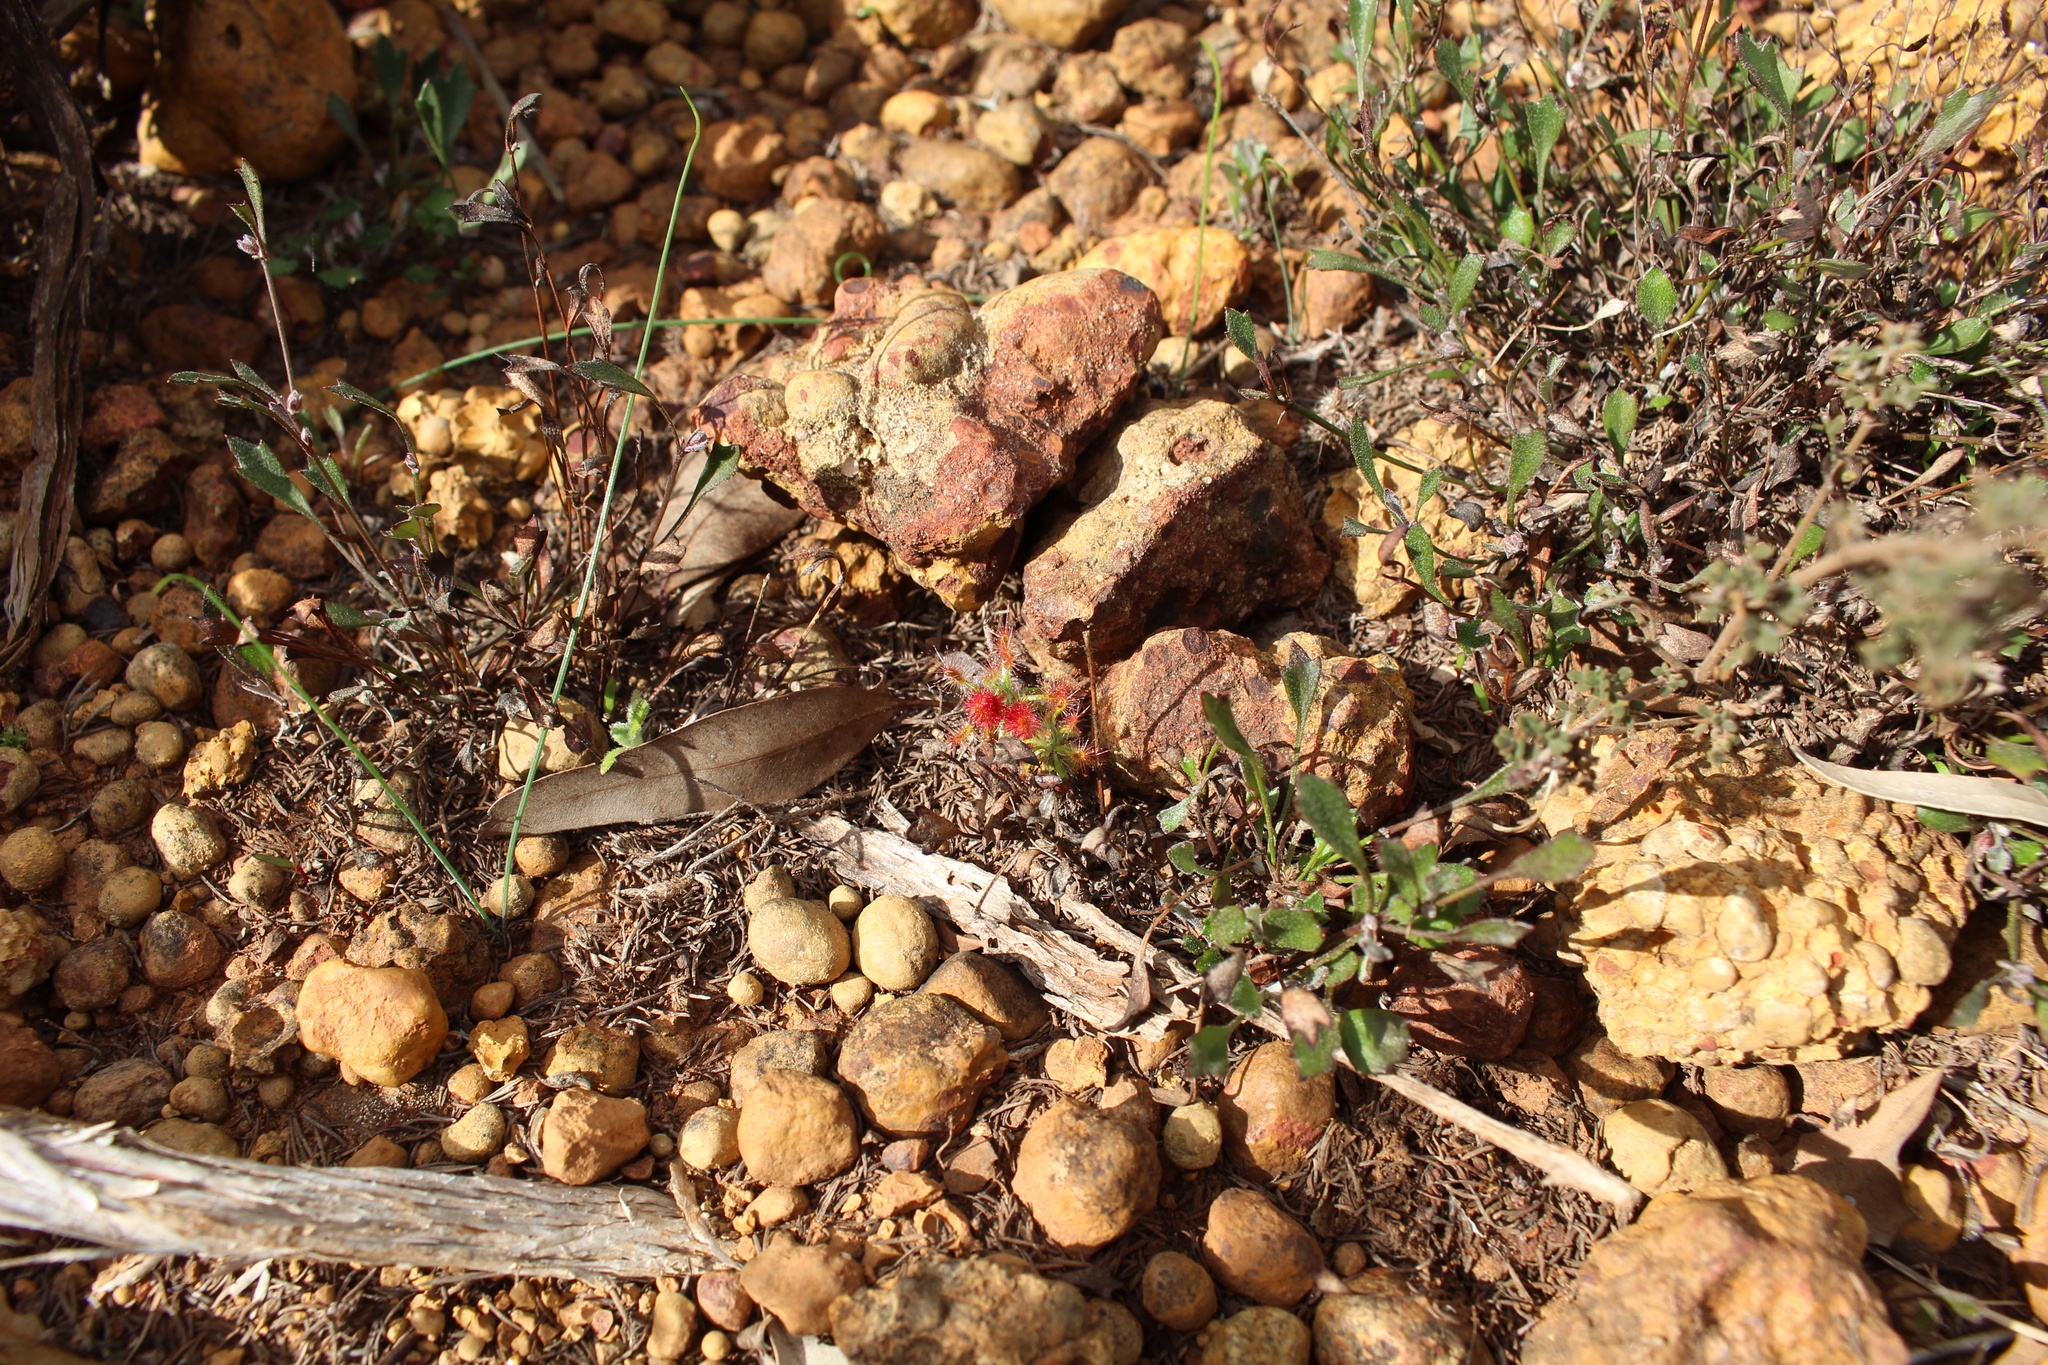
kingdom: Plantae
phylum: Tracheophyta
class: Magnoliopsida
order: Caryophyllales
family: Droseraceae
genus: Drosera
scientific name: Drosera barbigera
